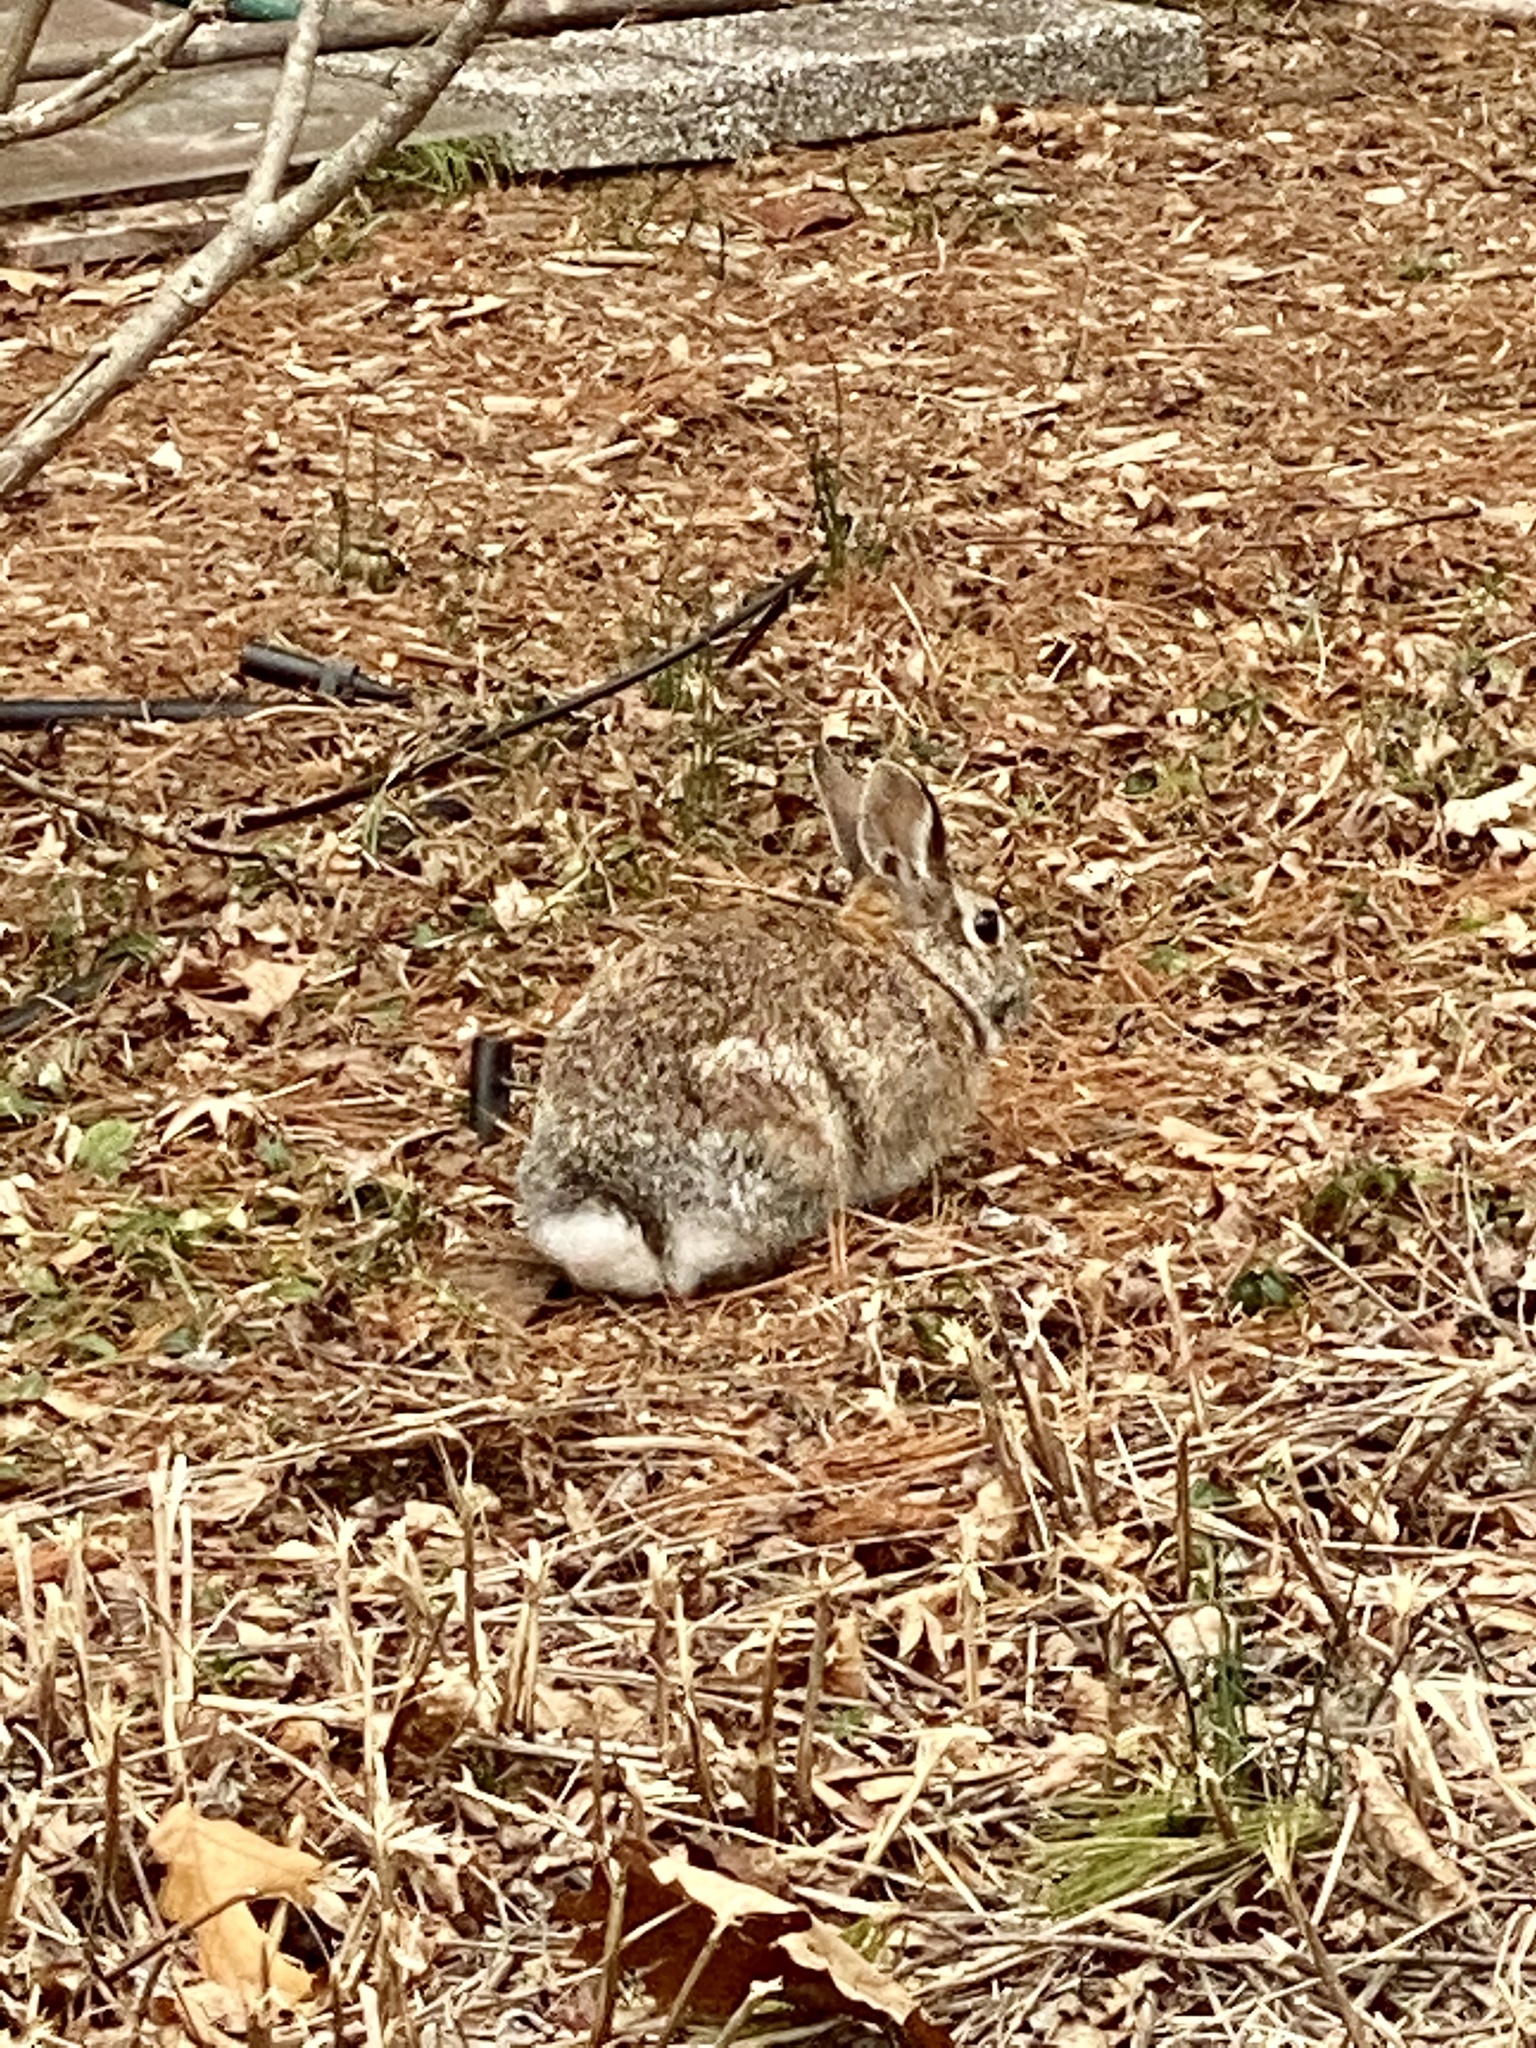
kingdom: Animalia
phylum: Chordata
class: Mammalia
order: Lagomorpha
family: Leporidae
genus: Sylvilagus
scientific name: Sylvilagus floridanus
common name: Eastern cottontail
